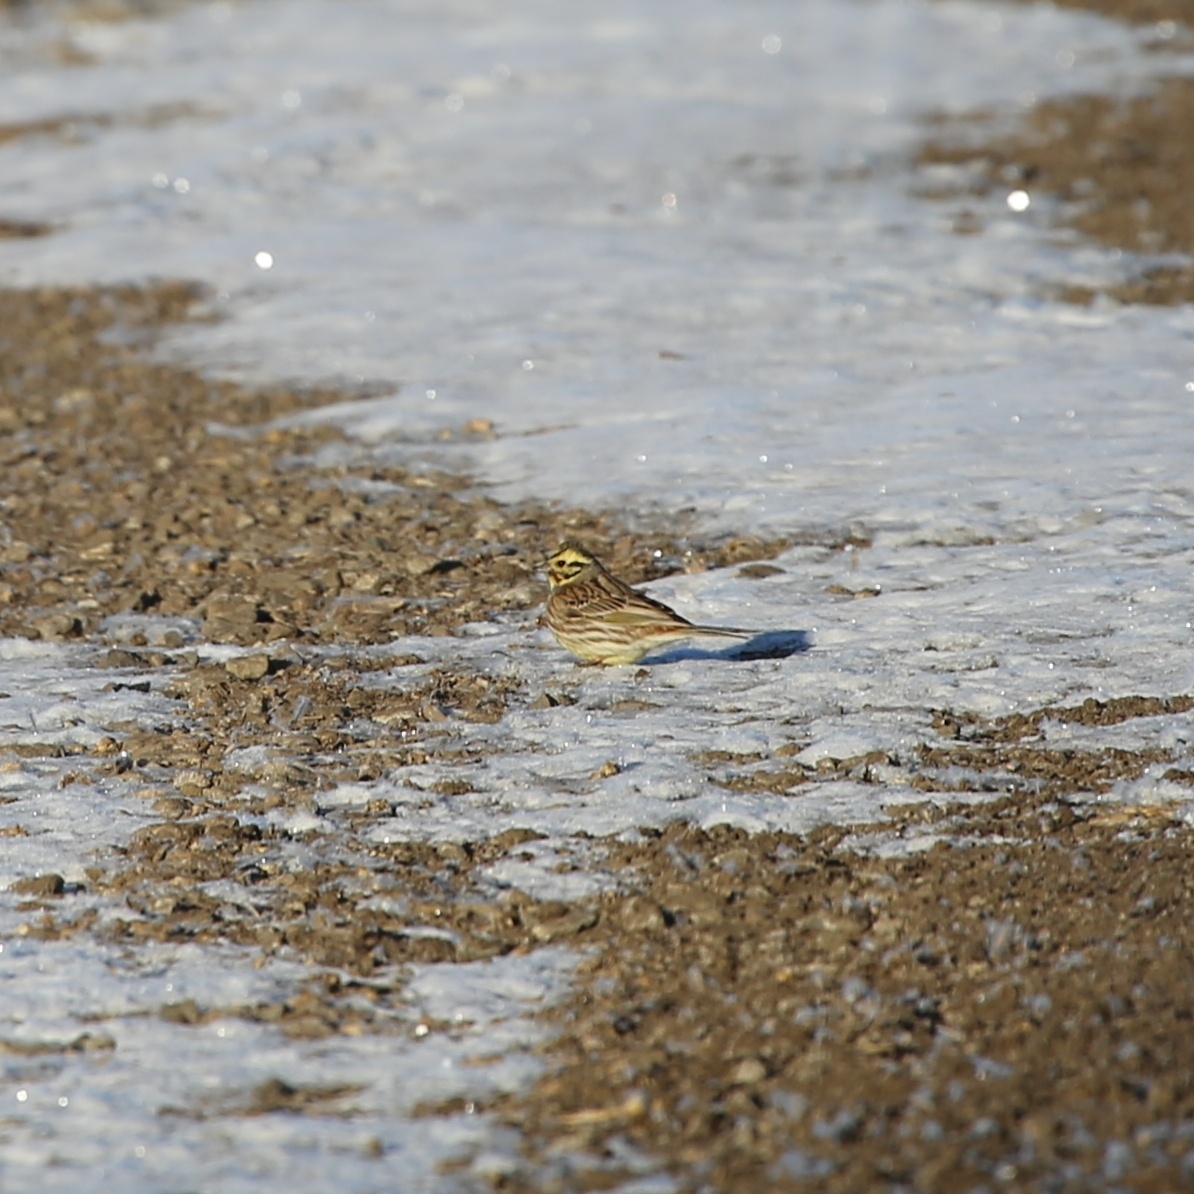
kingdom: Animalia
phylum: Chordata
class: Aves
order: Passeriformes
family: Emberizidae
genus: Emberiza
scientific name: Emberiza
